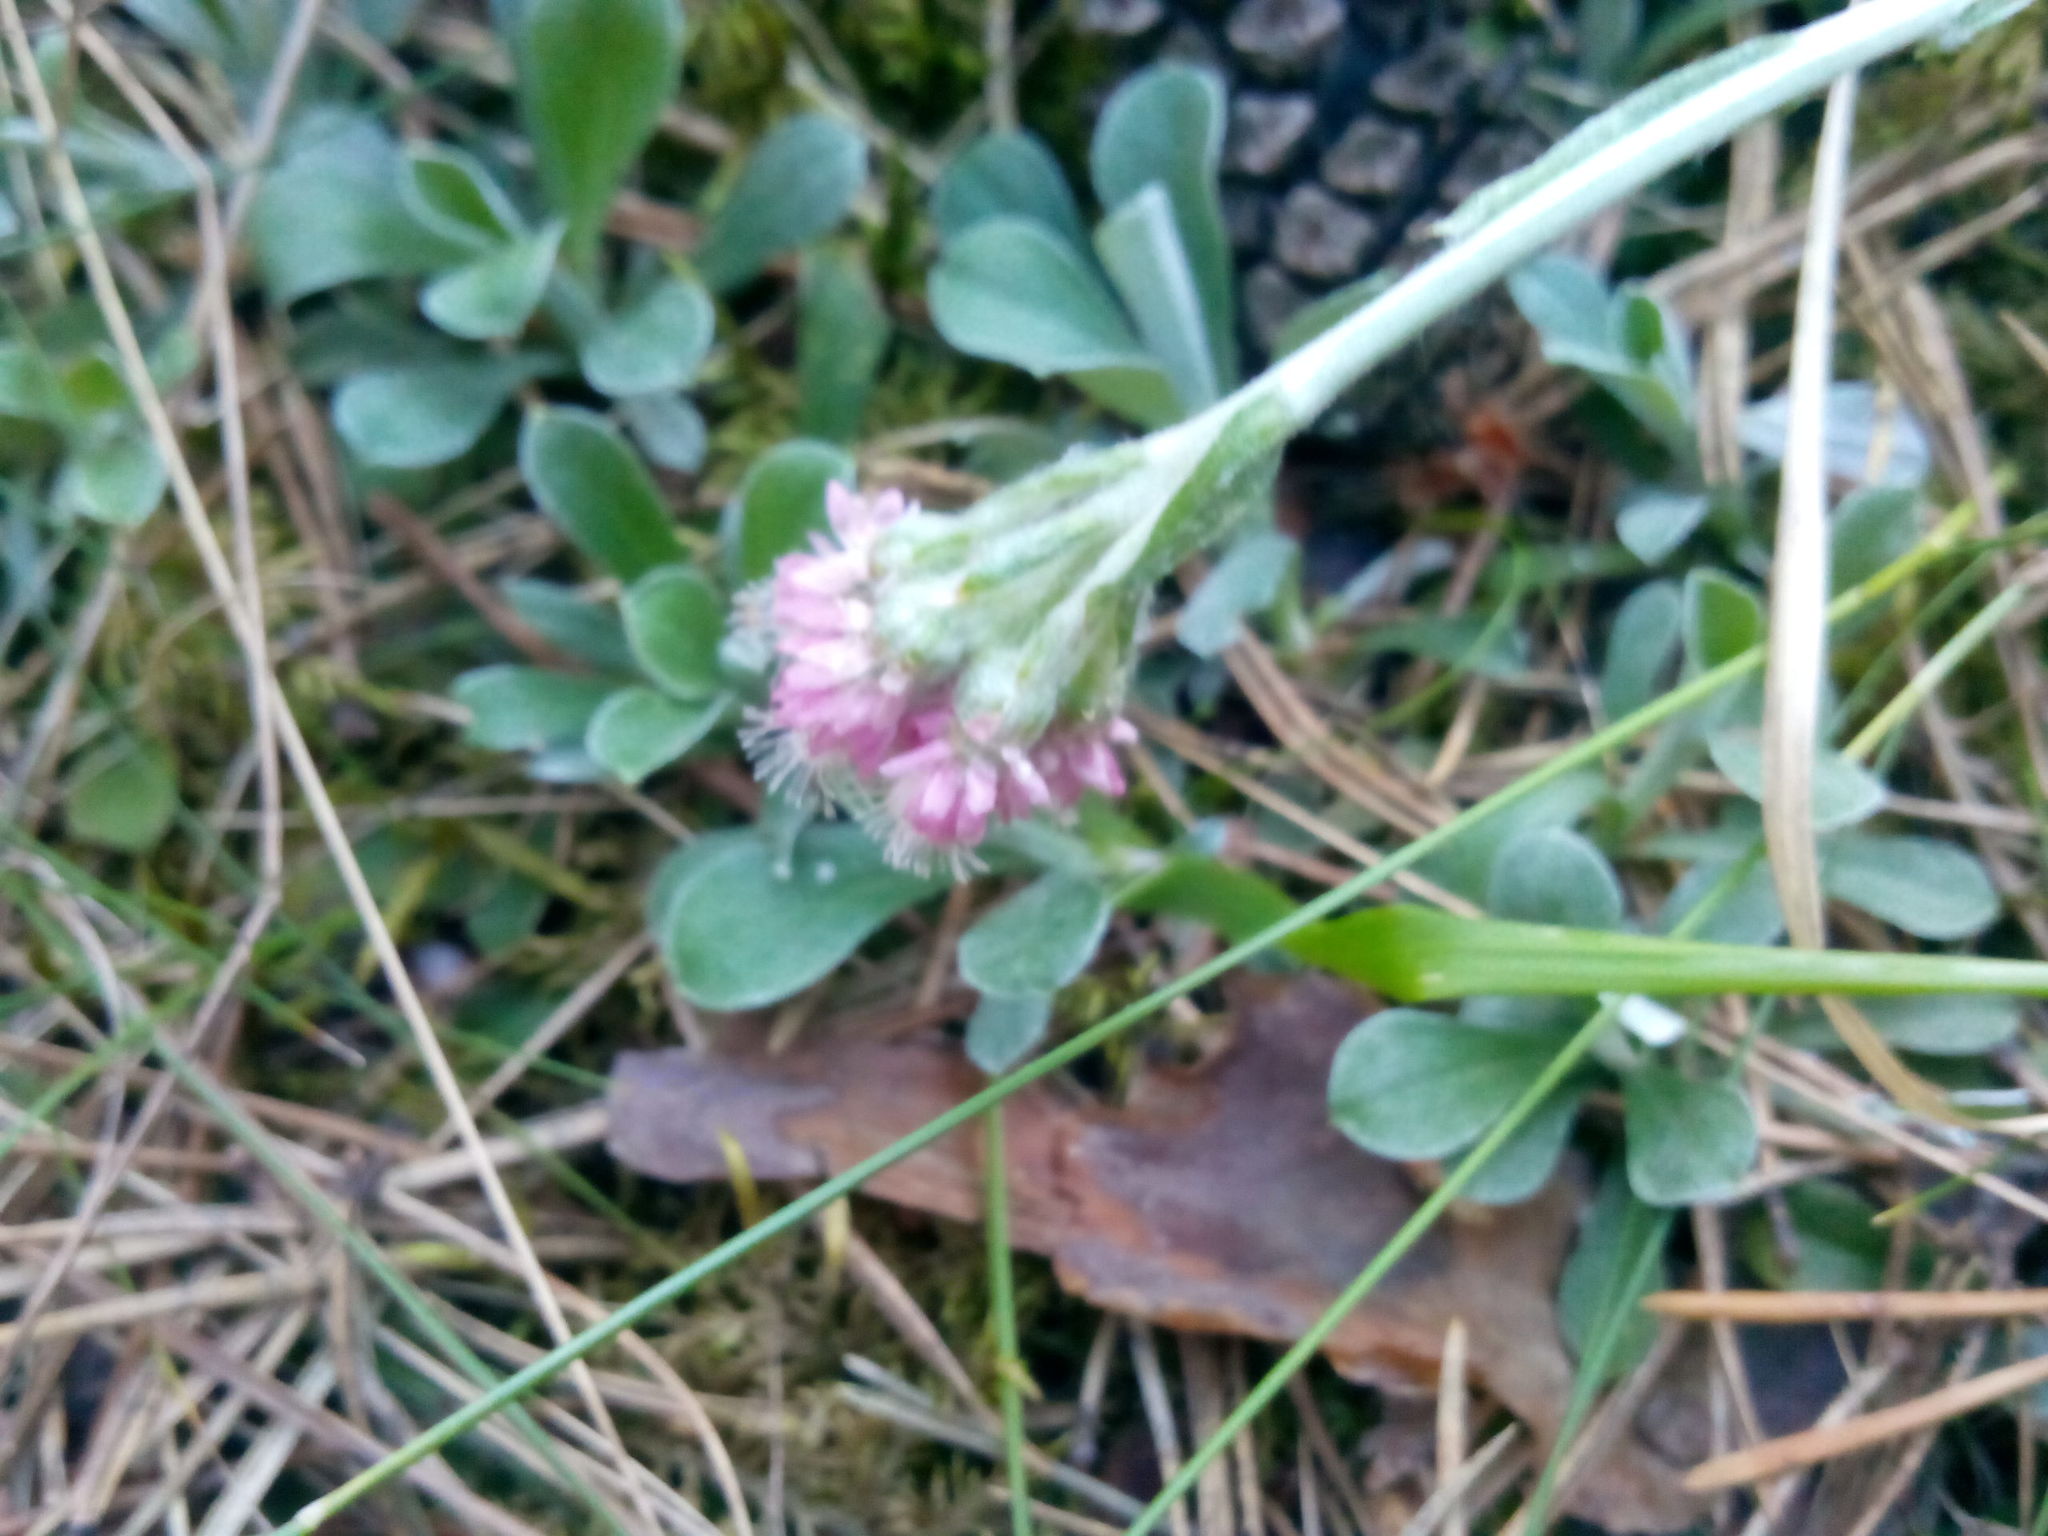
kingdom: Plantae
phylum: Tracheophyta
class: Magnoliopsida
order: Asterales
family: Asteraceae
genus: Antennaria
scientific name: Antennaria dioica
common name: Mountain everlasting
